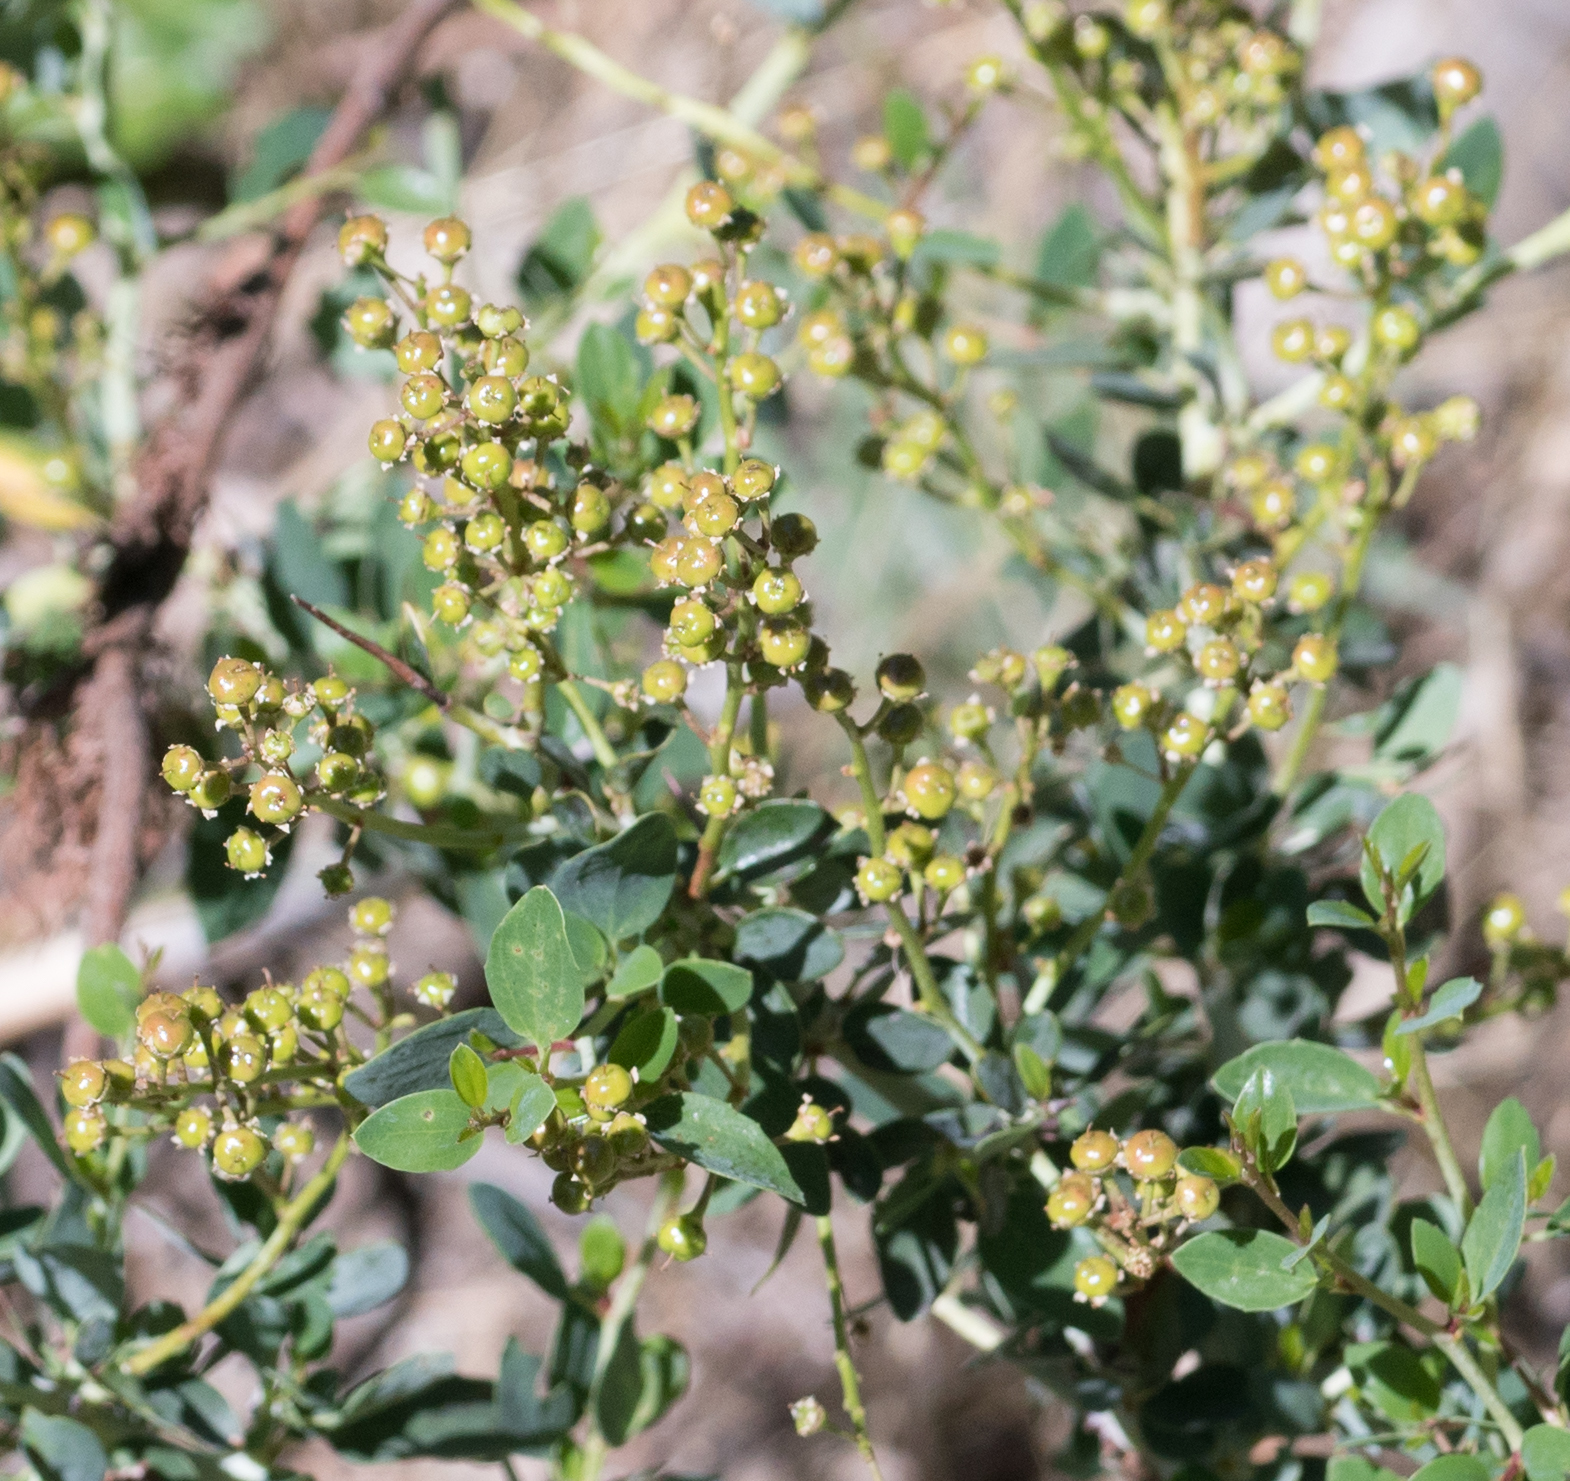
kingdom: Plantae
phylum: Tracheophyta
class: Magnoliopsida
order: Rosales
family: Rhamnaceae
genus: Ceanothus
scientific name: Ceanothus leucodermis
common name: Chaparral whitethorn
